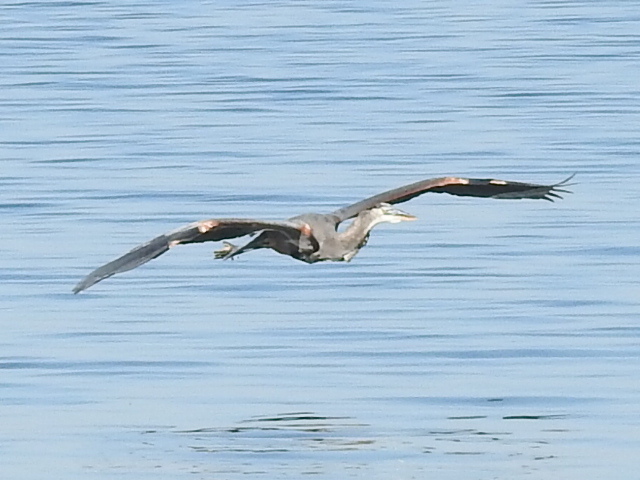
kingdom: Animalia
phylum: Chordata
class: Aves
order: Pelecaniformes
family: Ardeidae
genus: Ardea
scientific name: Ardea herodias
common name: Great blue heron
